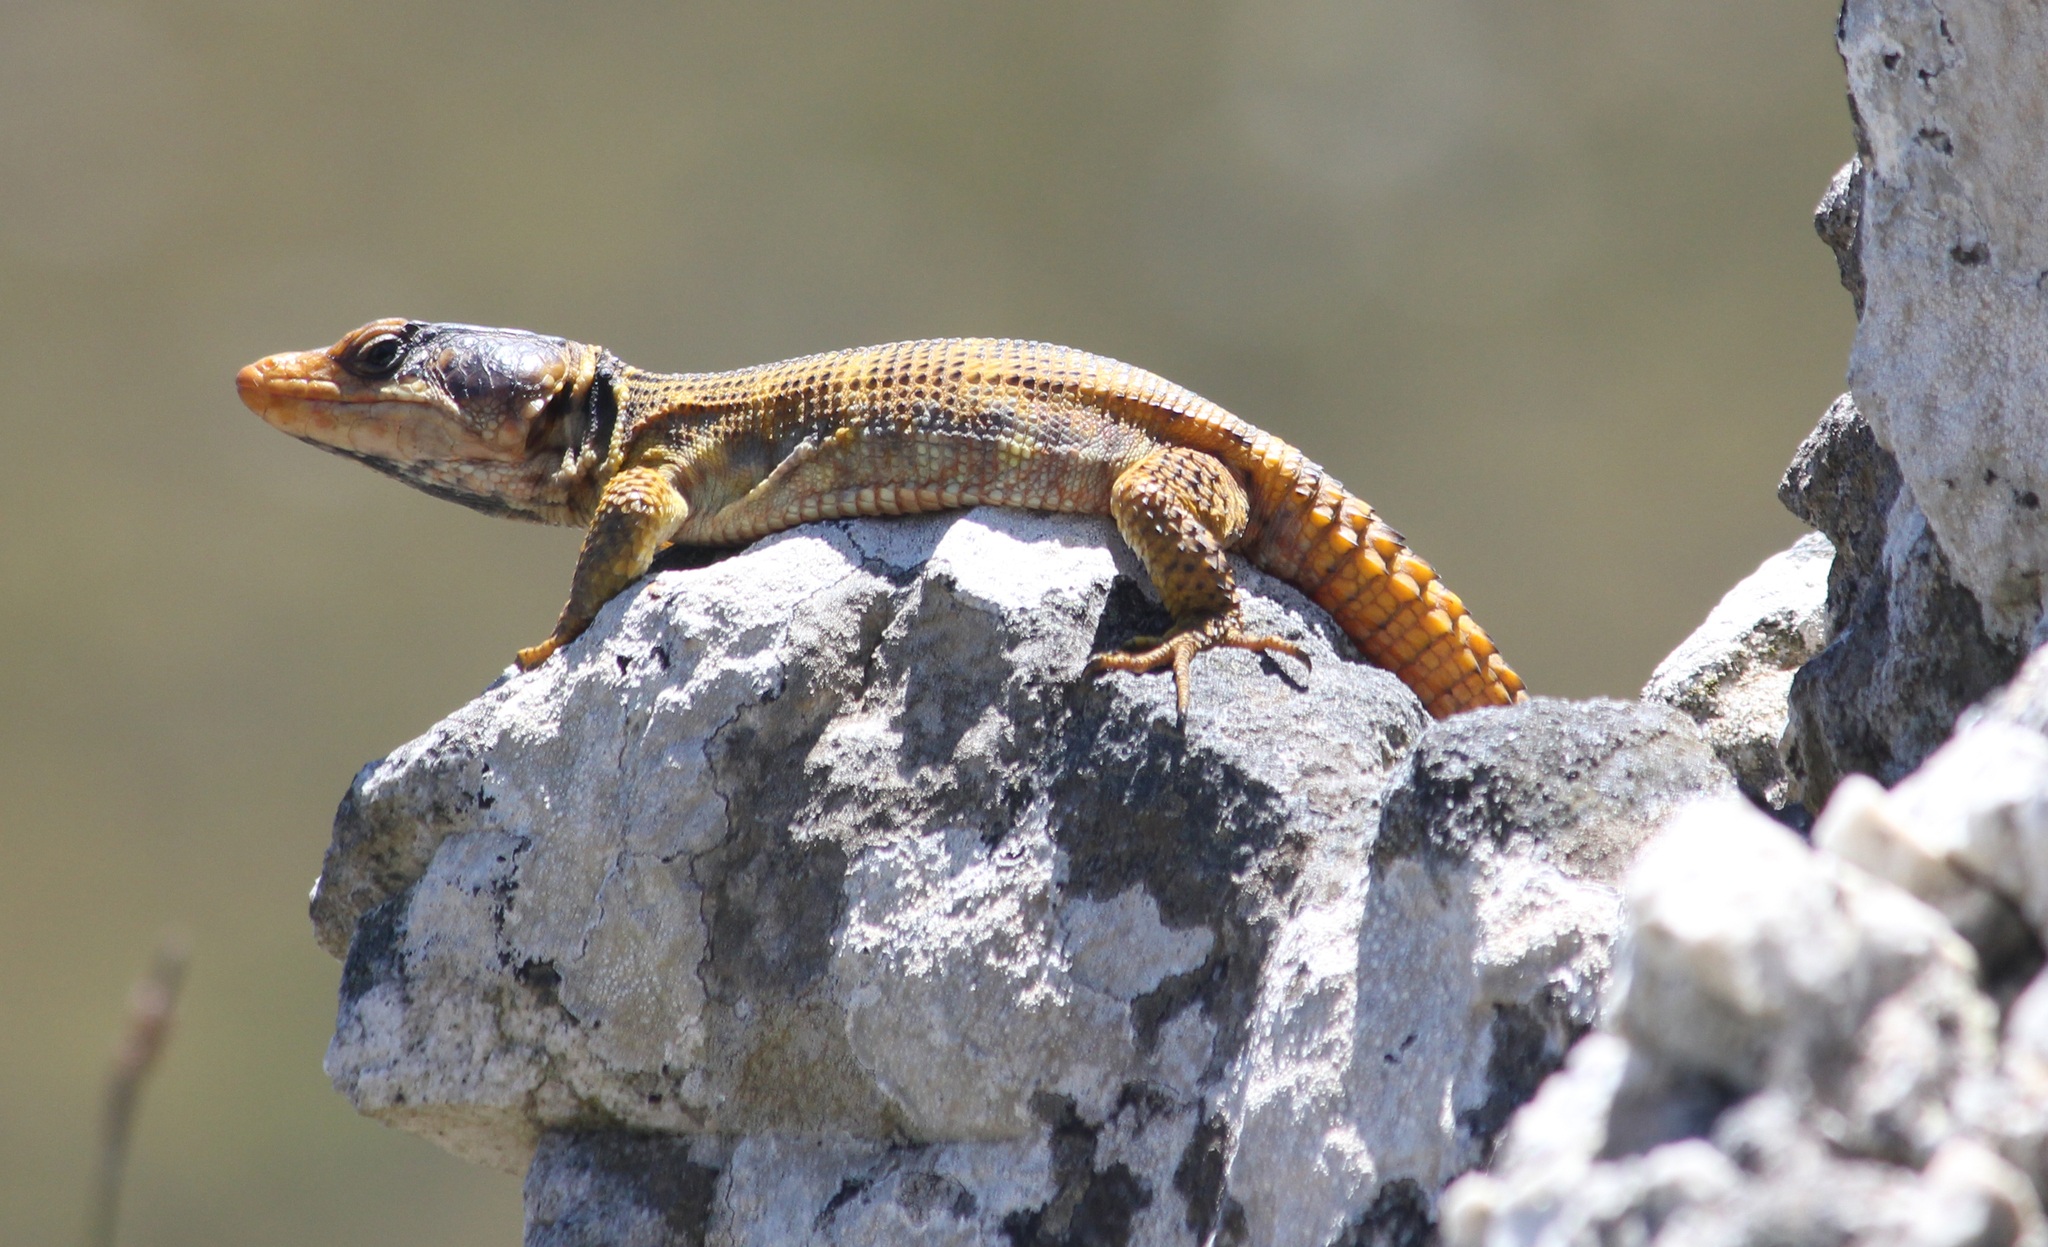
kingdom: Animalia
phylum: Chordata
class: Squamata
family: Cordylidae
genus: Pseudocordylus
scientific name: Pseudocordylus microlepidotus
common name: Cape crag lizard
